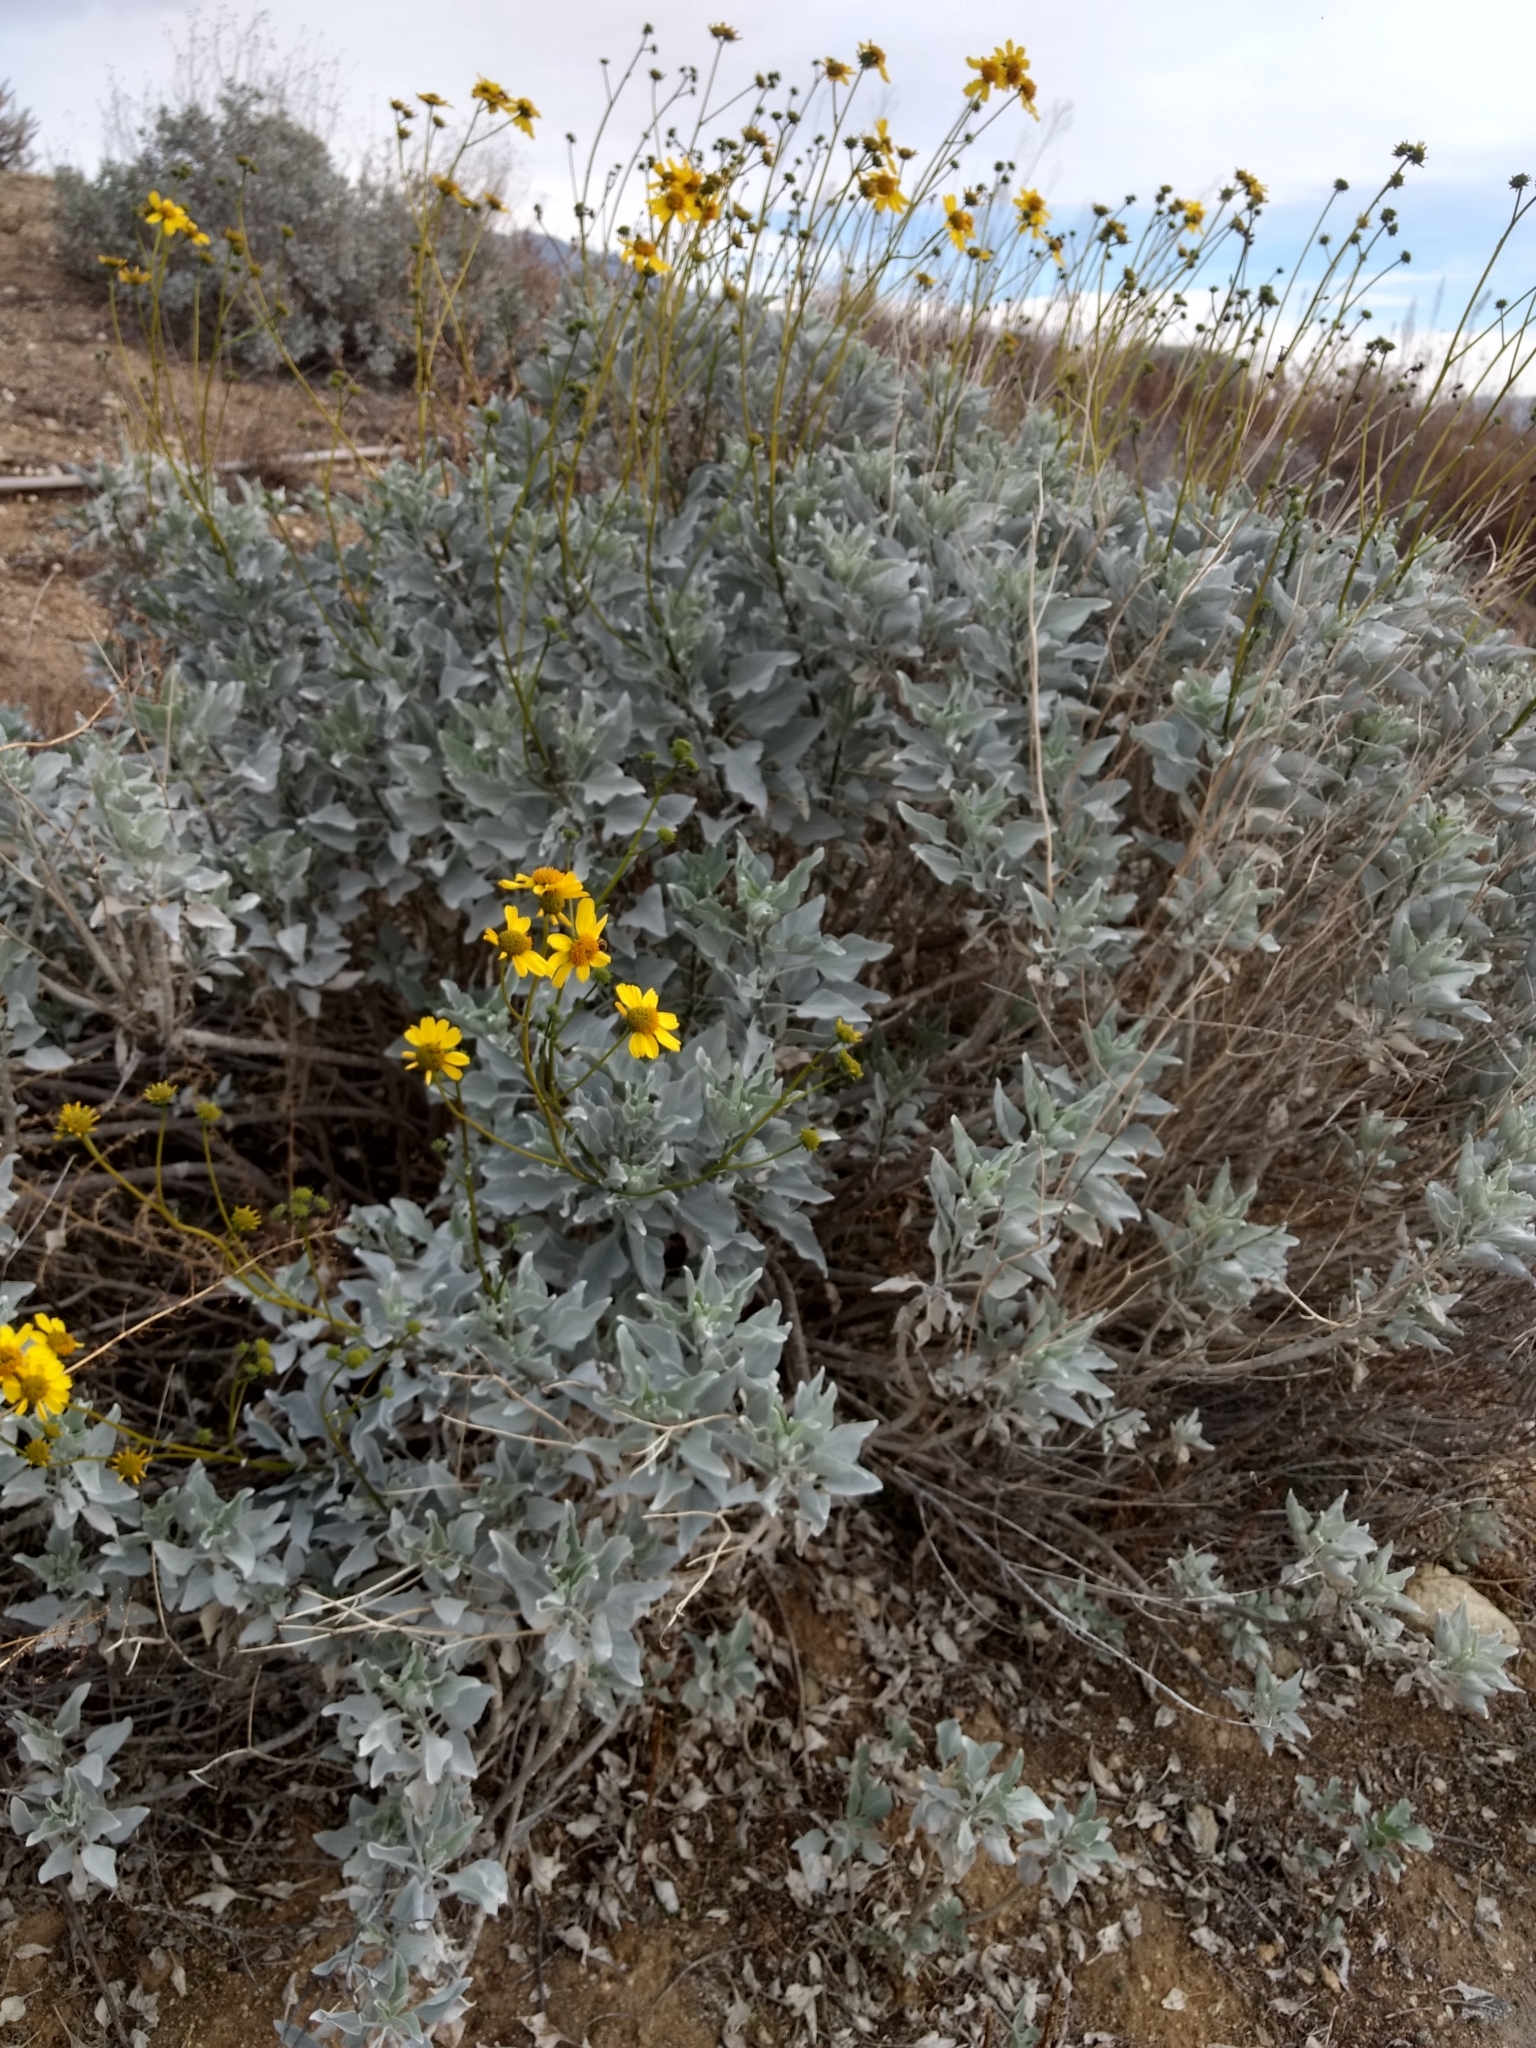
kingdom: Plantae
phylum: Tracheophyta
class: Magnoliopsida
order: Asterales
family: Asteraceae
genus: Encelia
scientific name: Encelia farinosa
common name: Brittlebush
